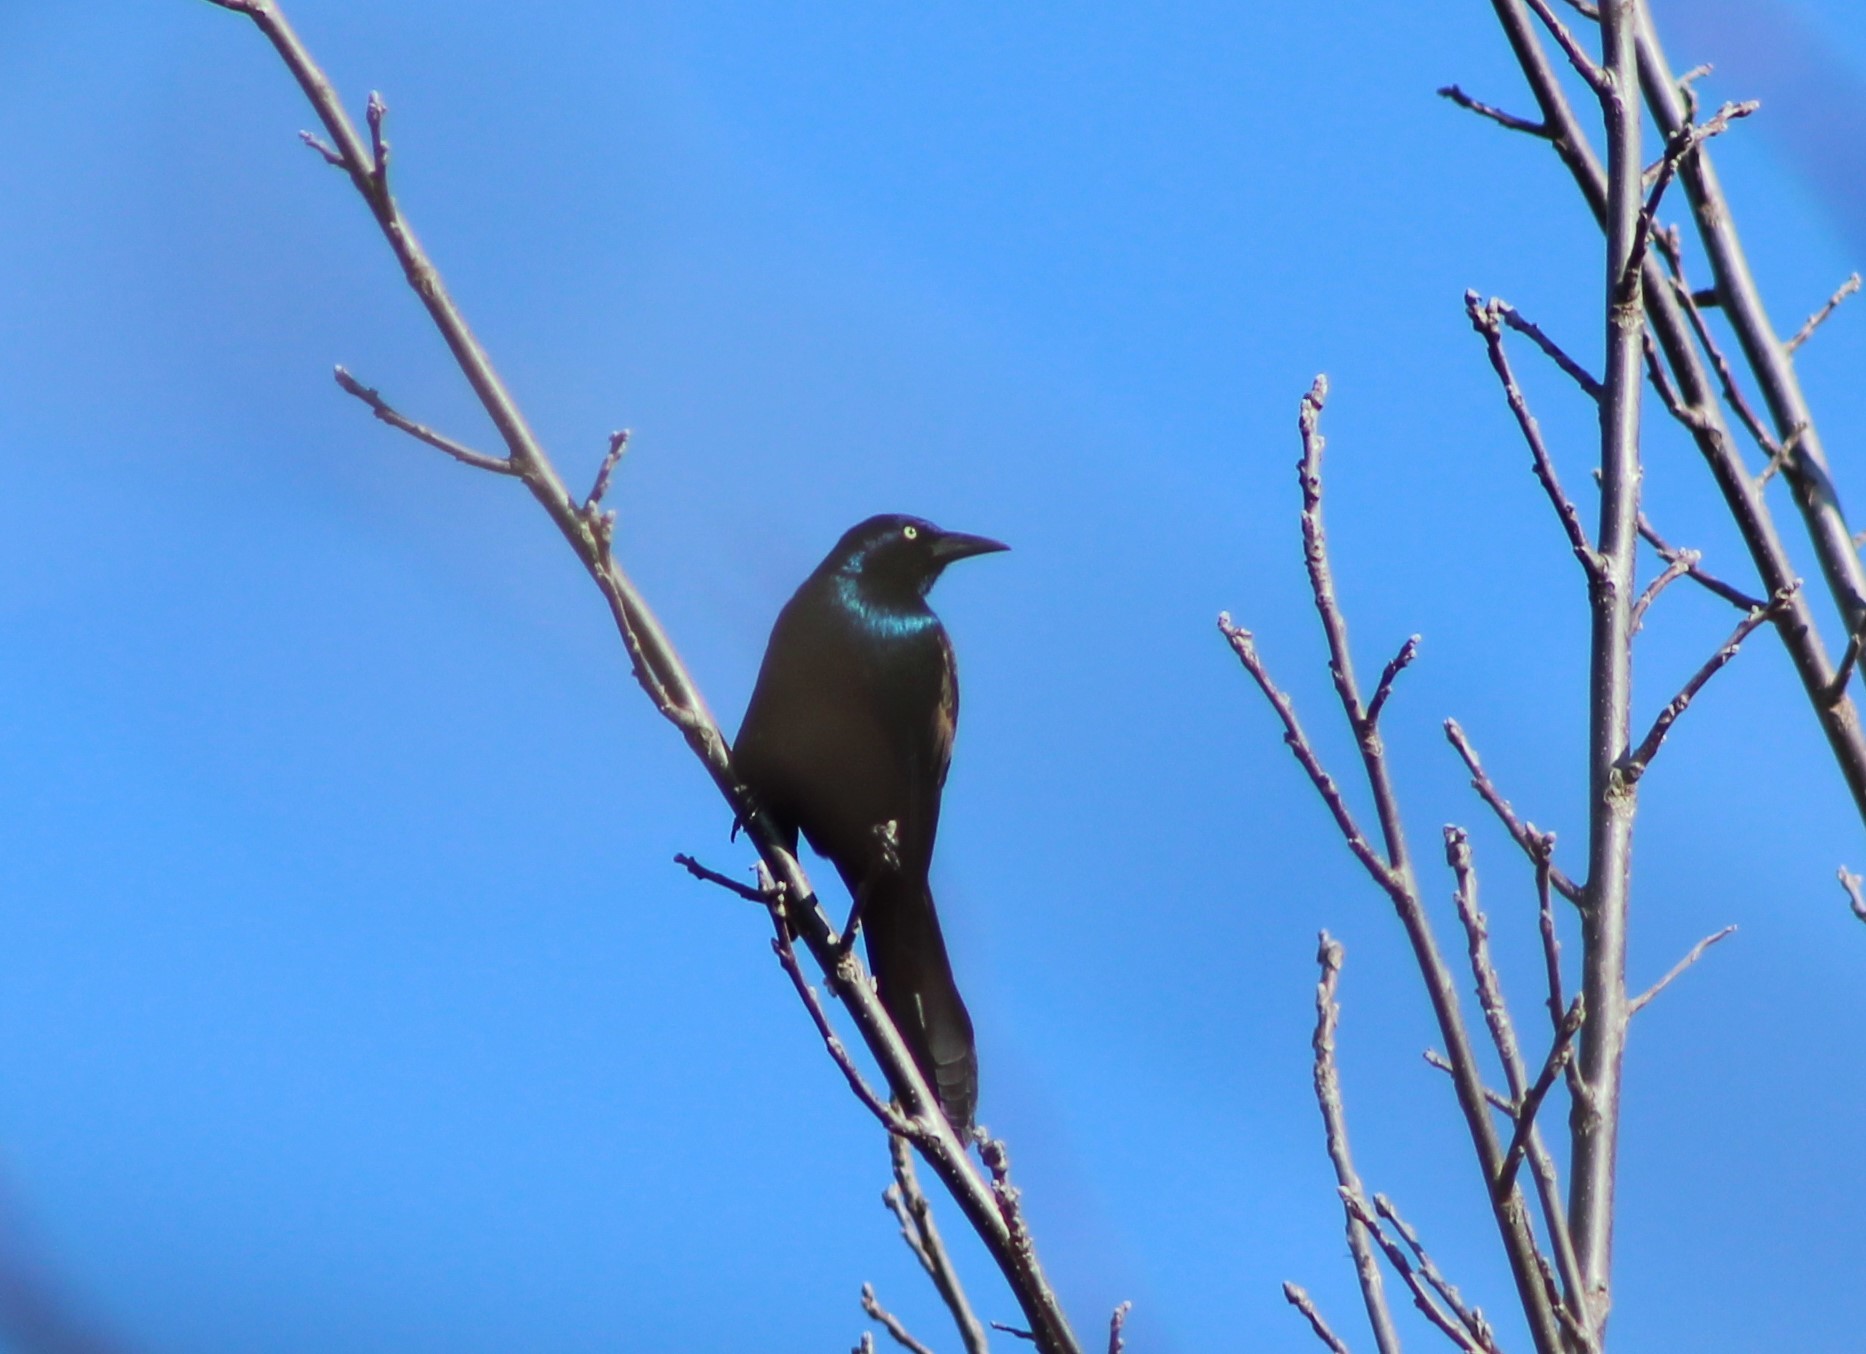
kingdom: Animalia
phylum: Chordata
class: Aves
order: Passeriformes
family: Icteridae
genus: Quiscalus
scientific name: Quiscalus quiscula
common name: Common grackle
